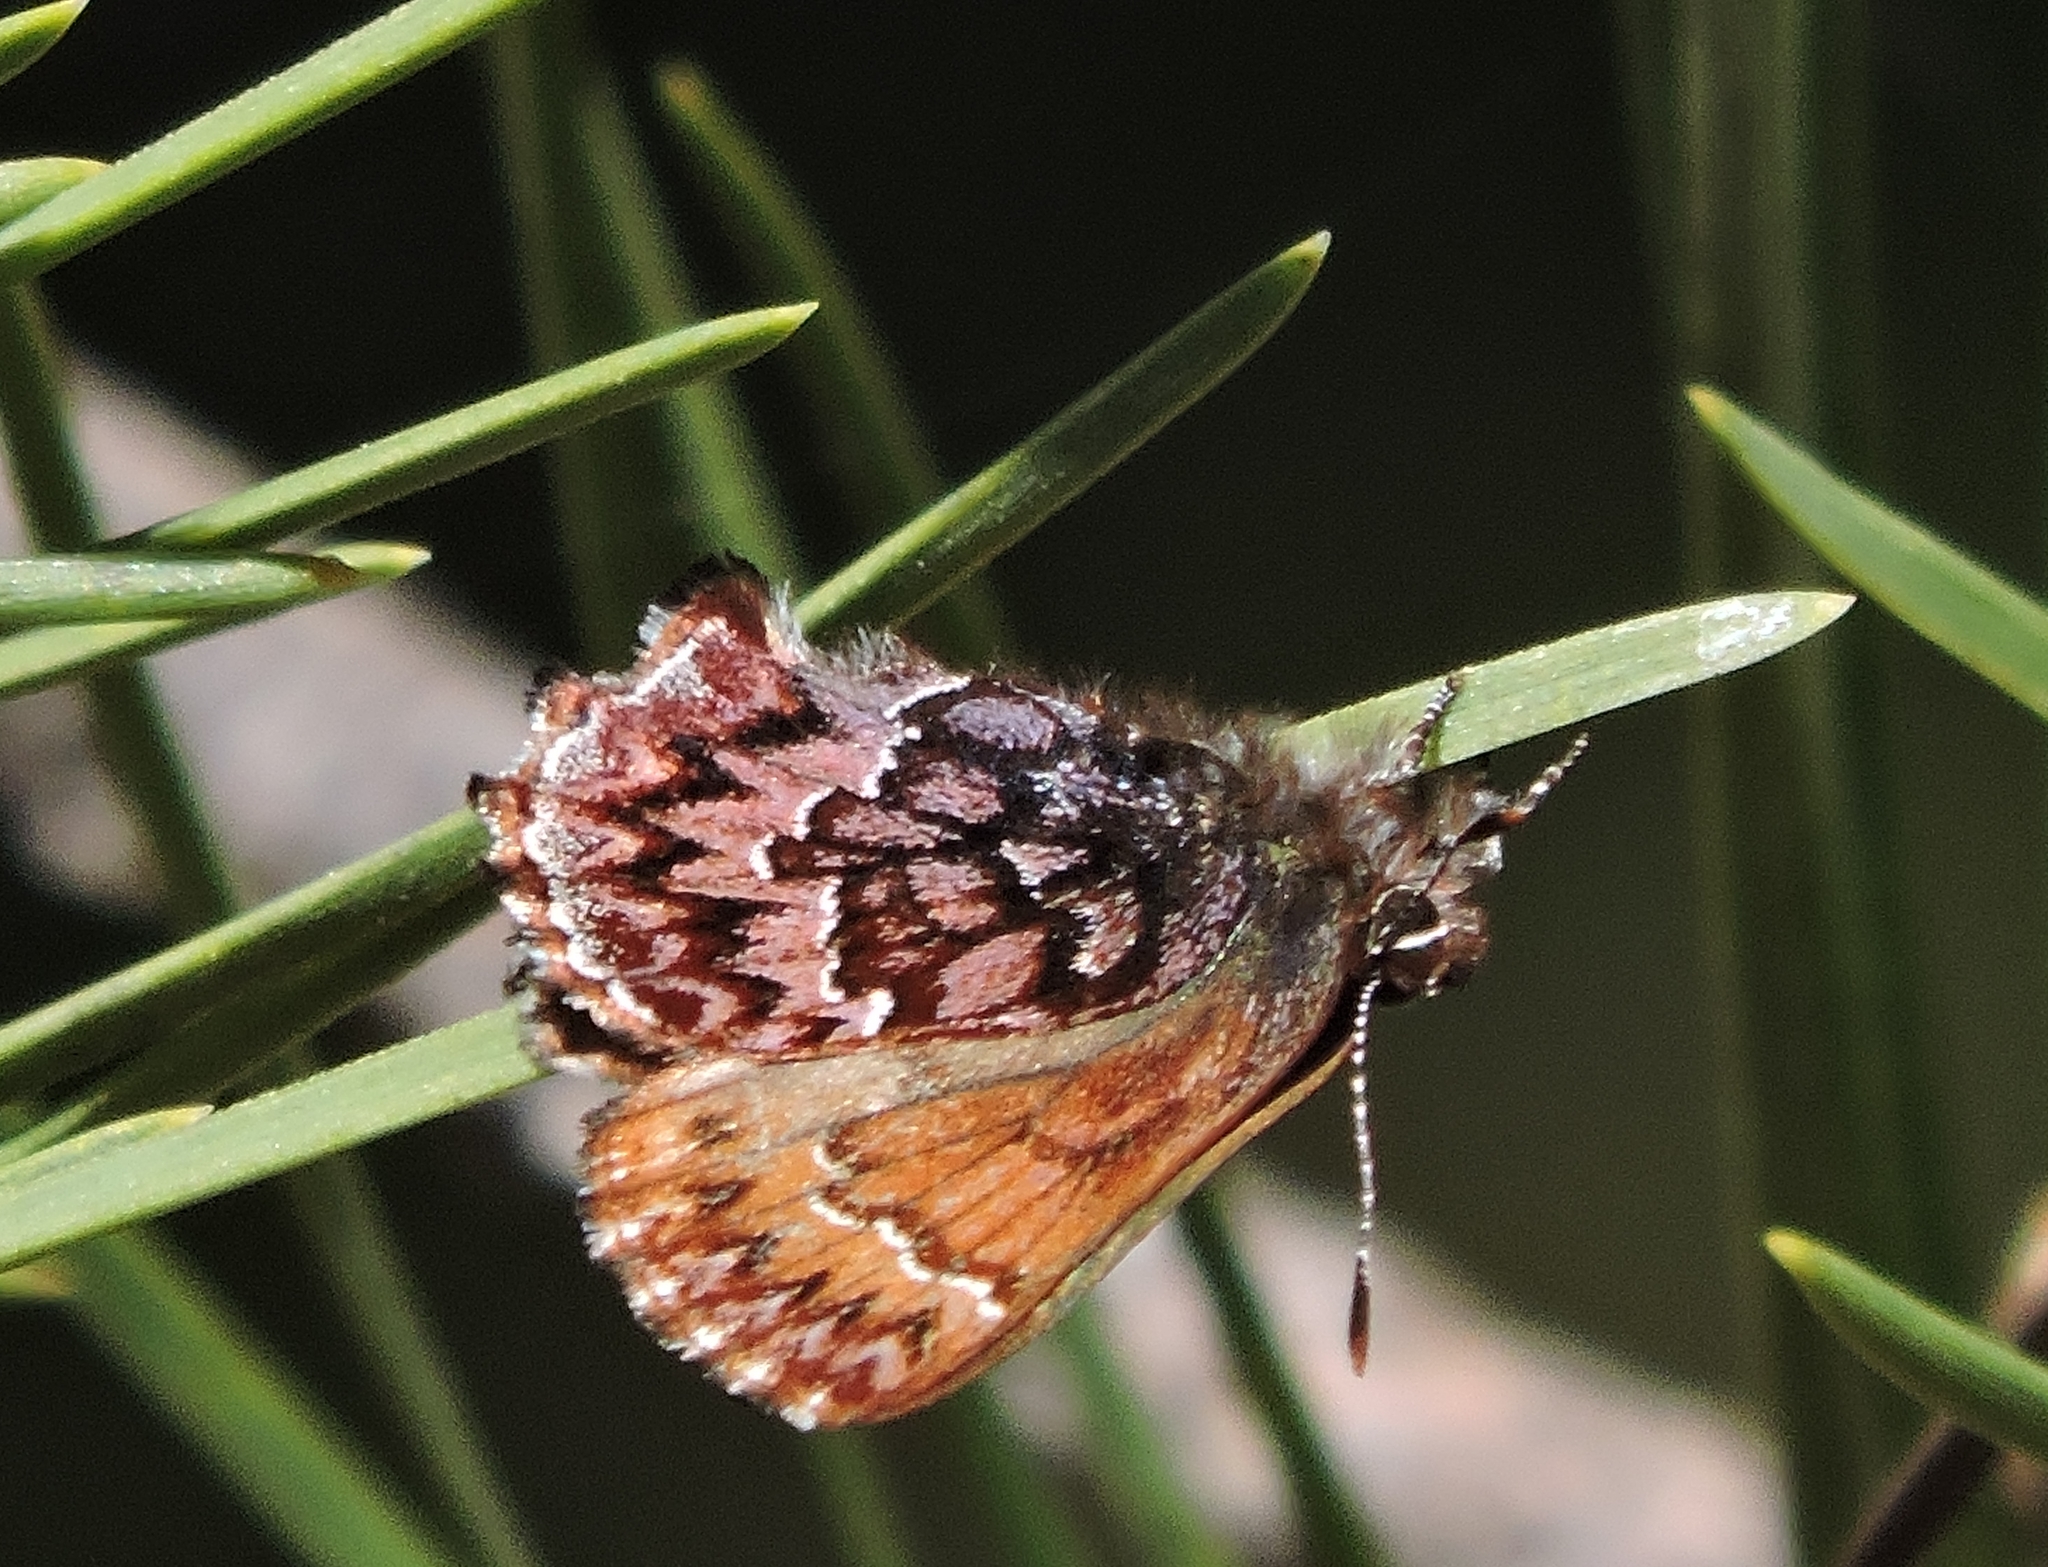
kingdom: Animalia
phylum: Arthropoda
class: Insecta
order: Lepidoptera
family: Lycaenidae
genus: Incisalia
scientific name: Incisalia eryphon
